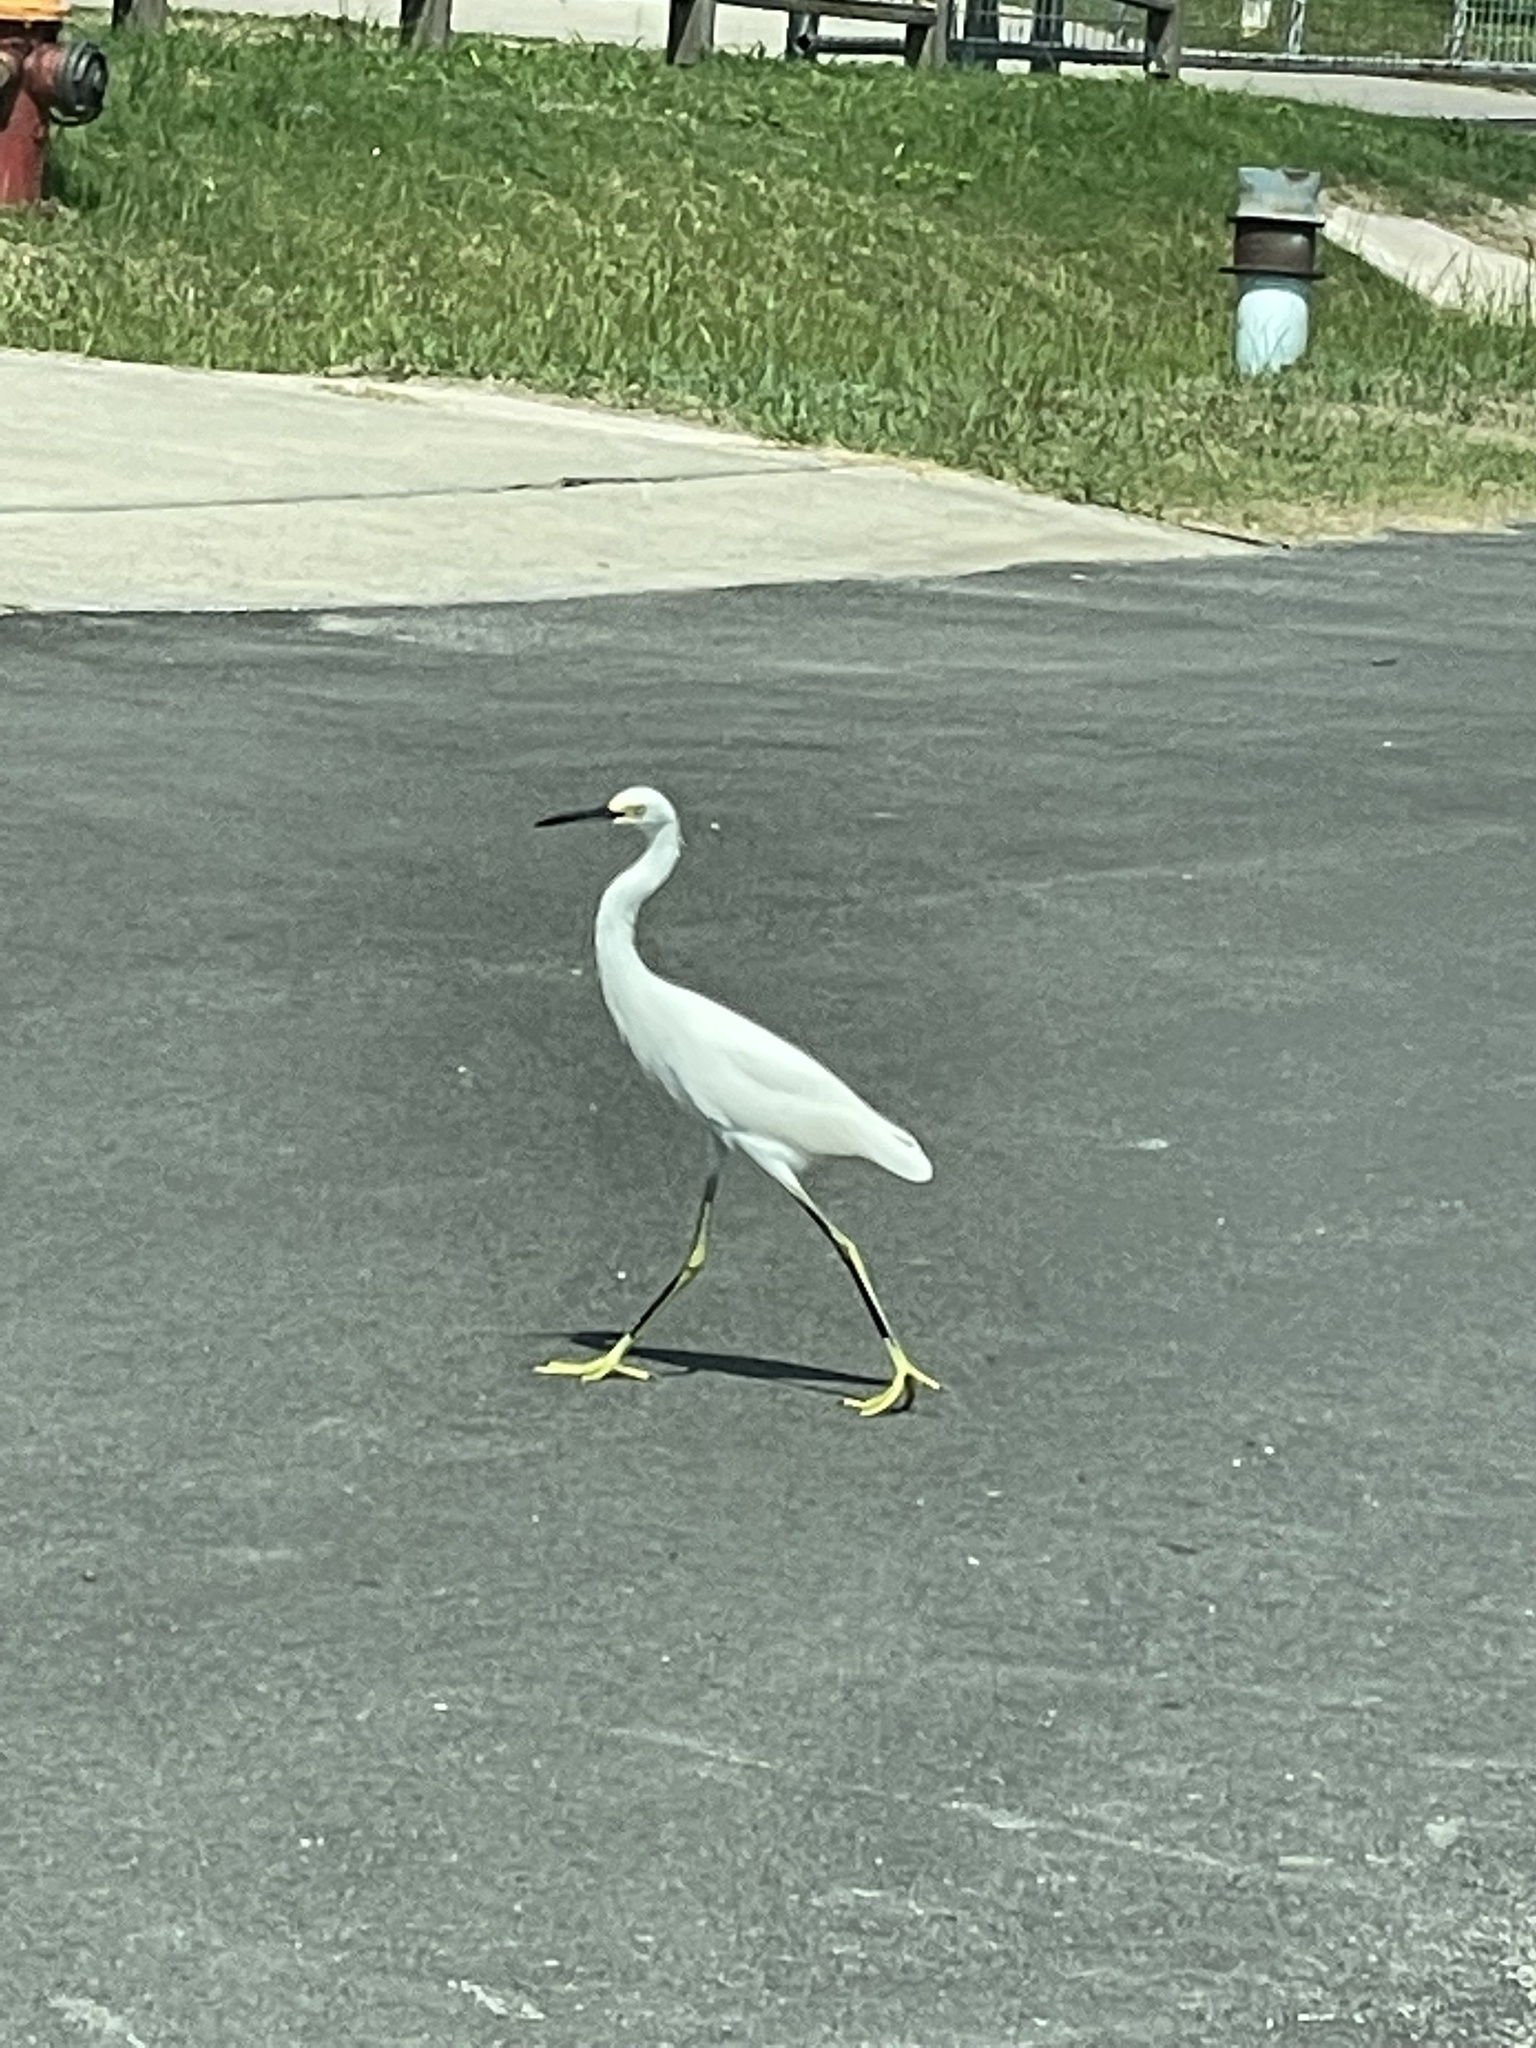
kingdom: Animalia
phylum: Chordata
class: Aves
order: Pelecaniformes
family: Ardeidae
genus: Egretta
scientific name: Egretta thula
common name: Snowy egret
